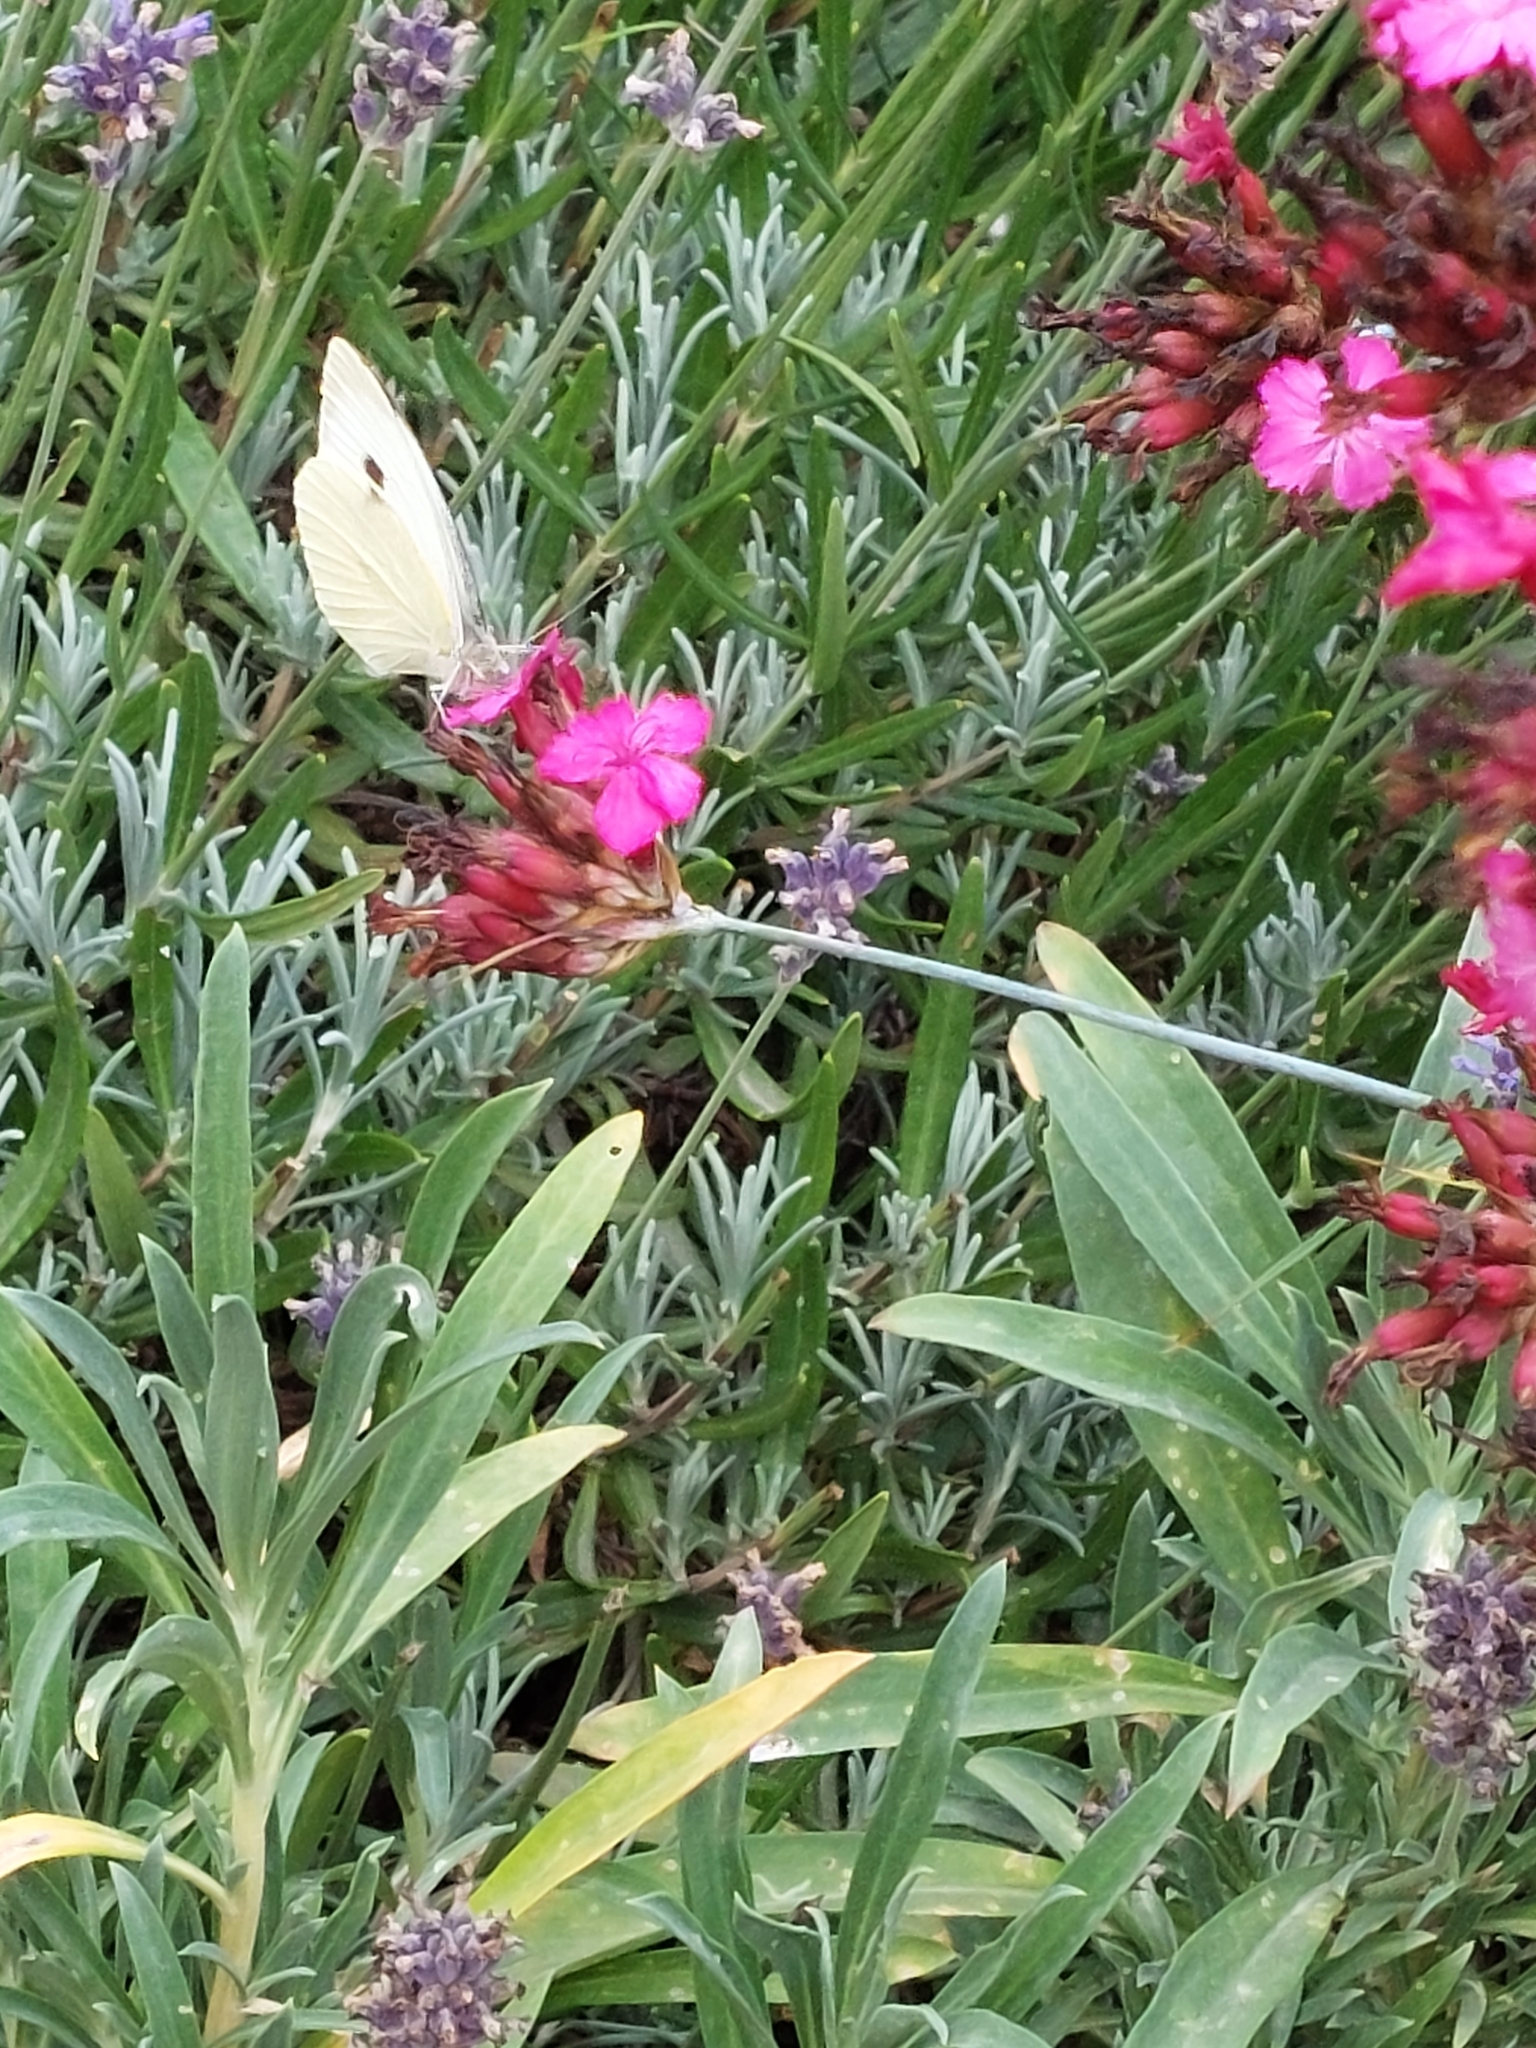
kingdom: Animalia
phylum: Arthropoda
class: Insecta
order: Lepidoptera
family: Pieridae
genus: Pieris
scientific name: Pieris rapae
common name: Small white
